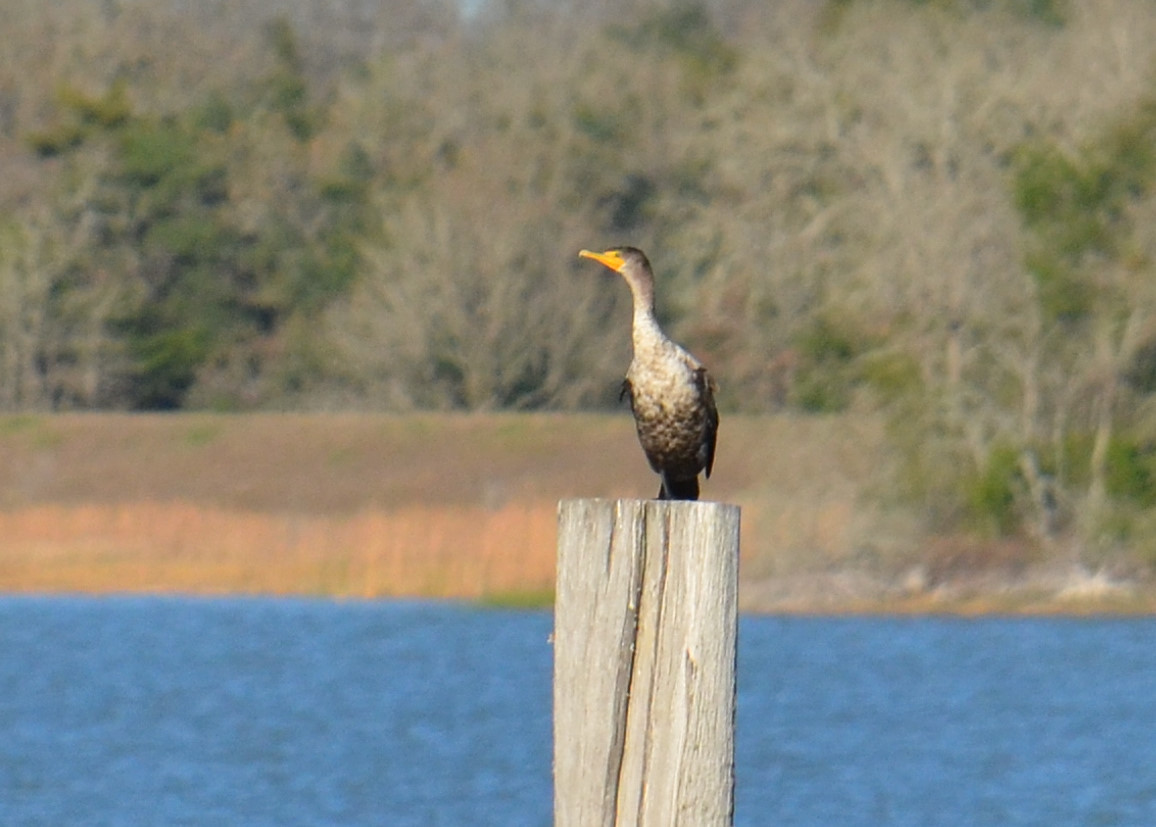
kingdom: Animalia
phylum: Chordata
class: Aves
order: Suliformes
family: Phalacrocoracidae
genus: Phalacrocorax
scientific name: Phalacrocorax auritus
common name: Double-crested cormorant
